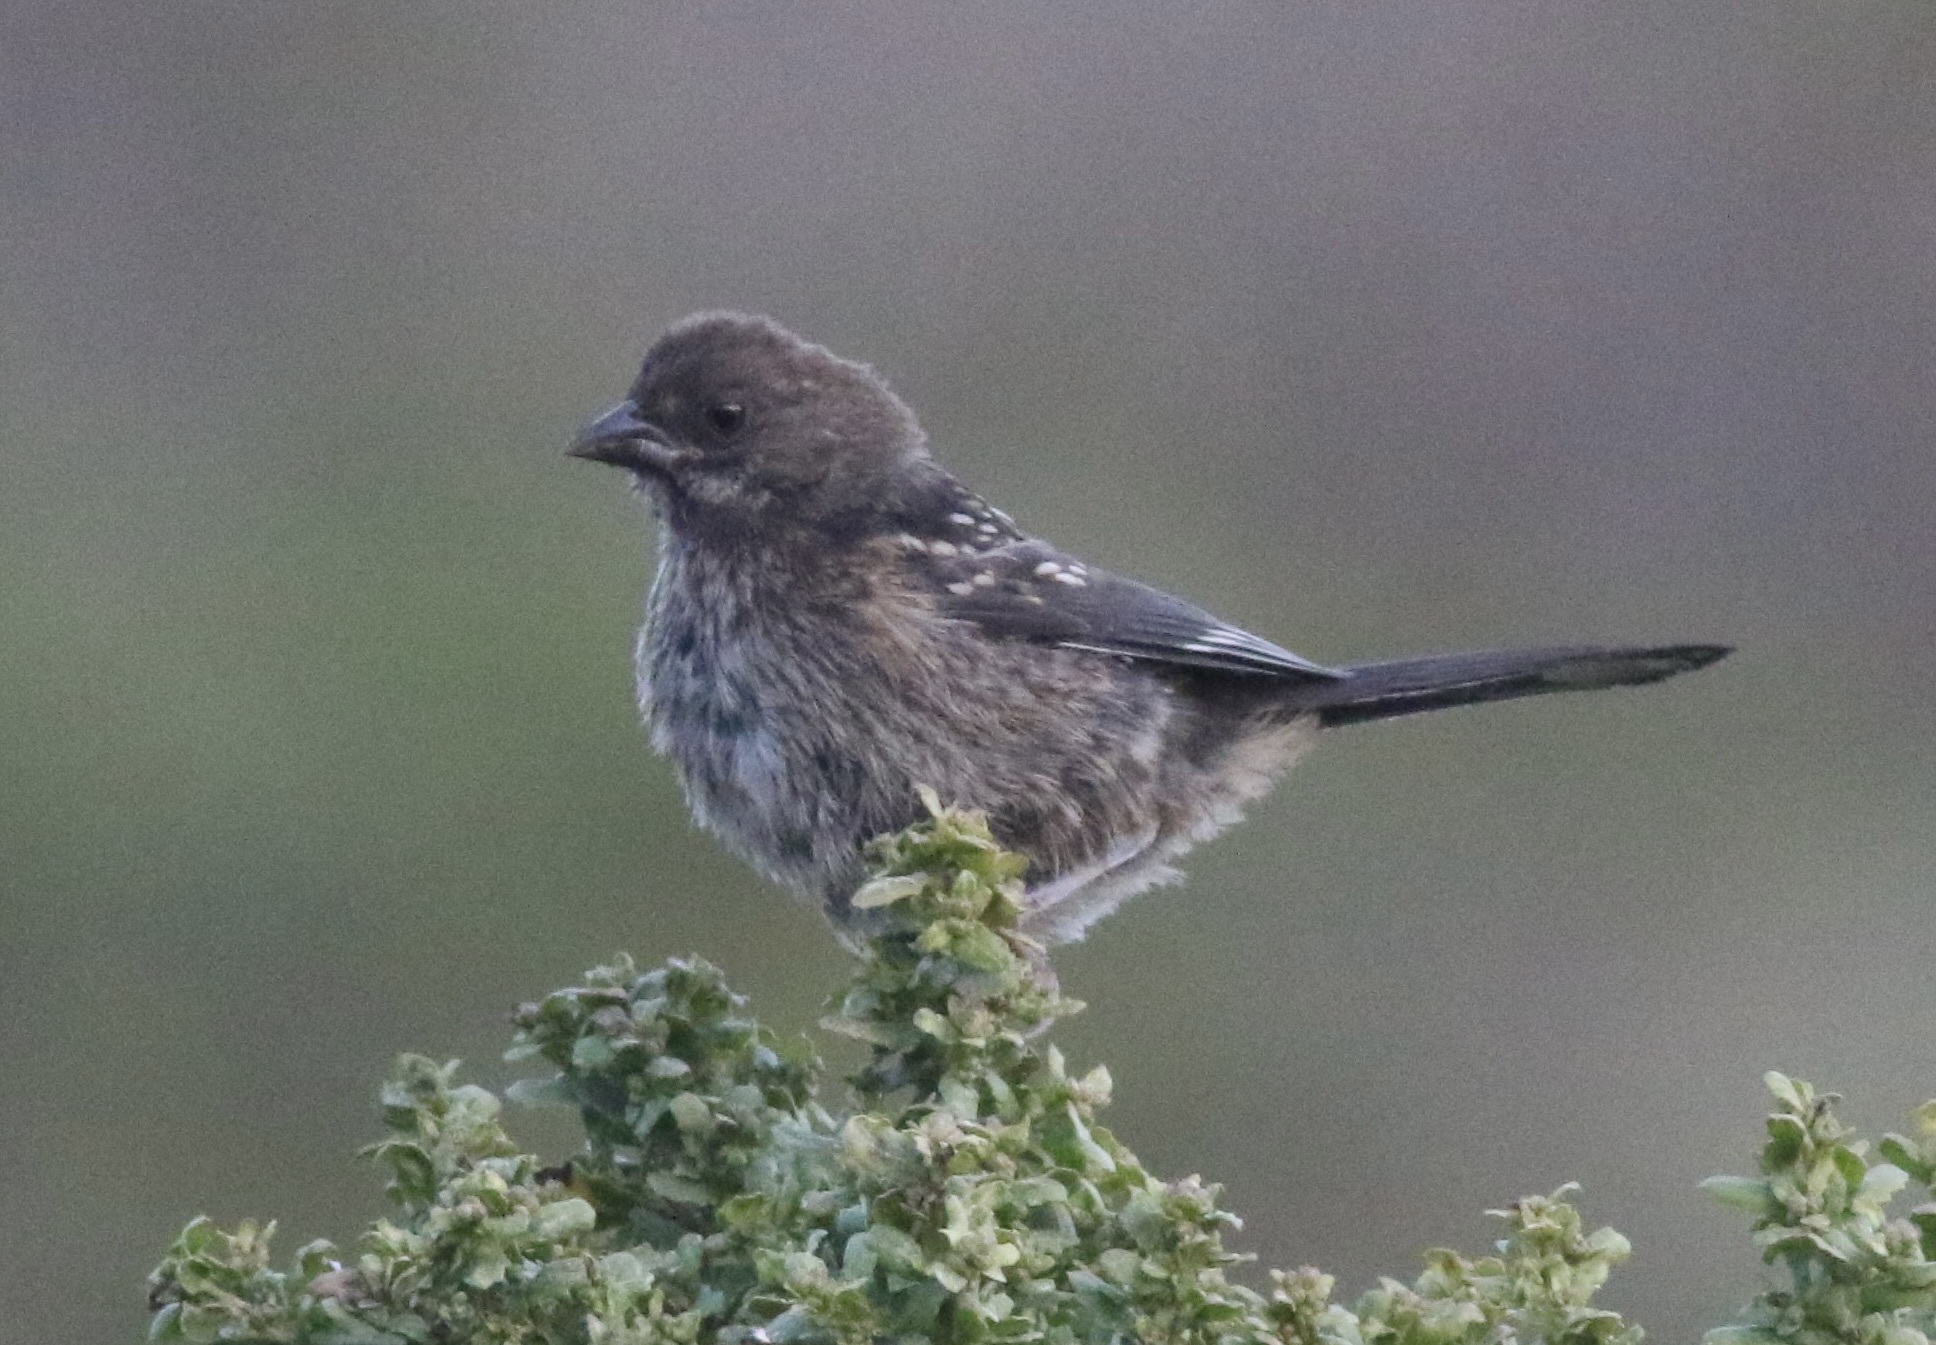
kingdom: Animalia
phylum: Chordata
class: Aves
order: Passeriformes
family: Passerellidae
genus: Pipilo
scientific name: Pipilo maculatus
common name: Spotted towhee
